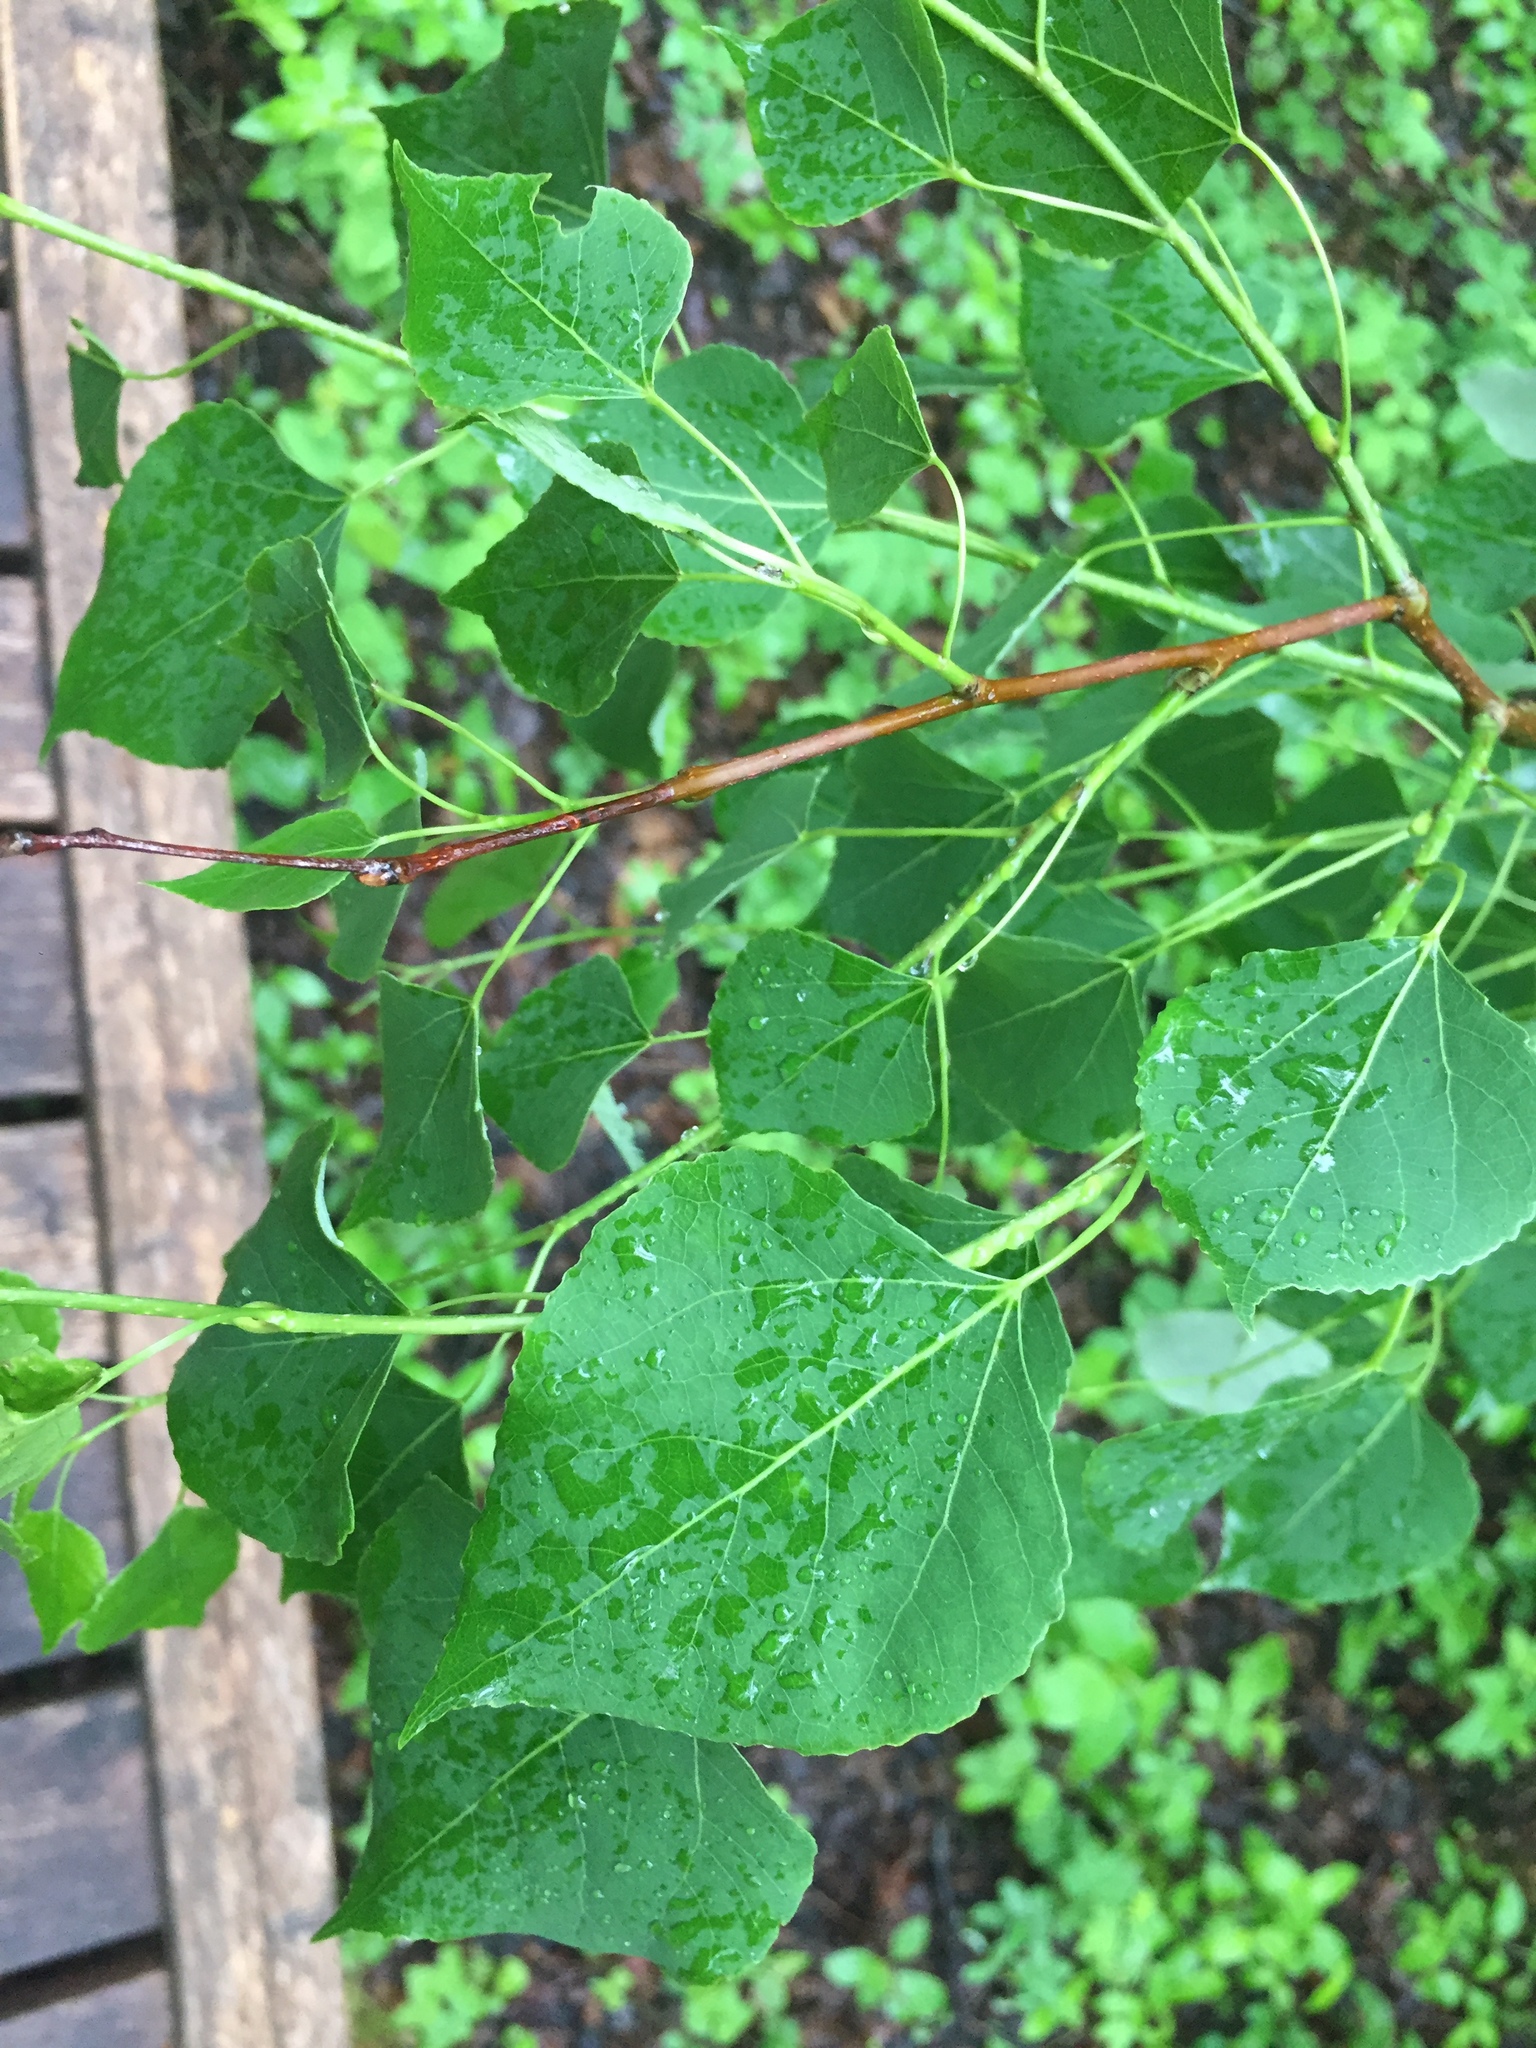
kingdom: Plantae
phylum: Tracheophyta
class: Magnoliopsida
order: Malpighiales
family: Salicaceae
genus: Populus
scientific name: Populus tremuloides
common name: Quaking aspen
